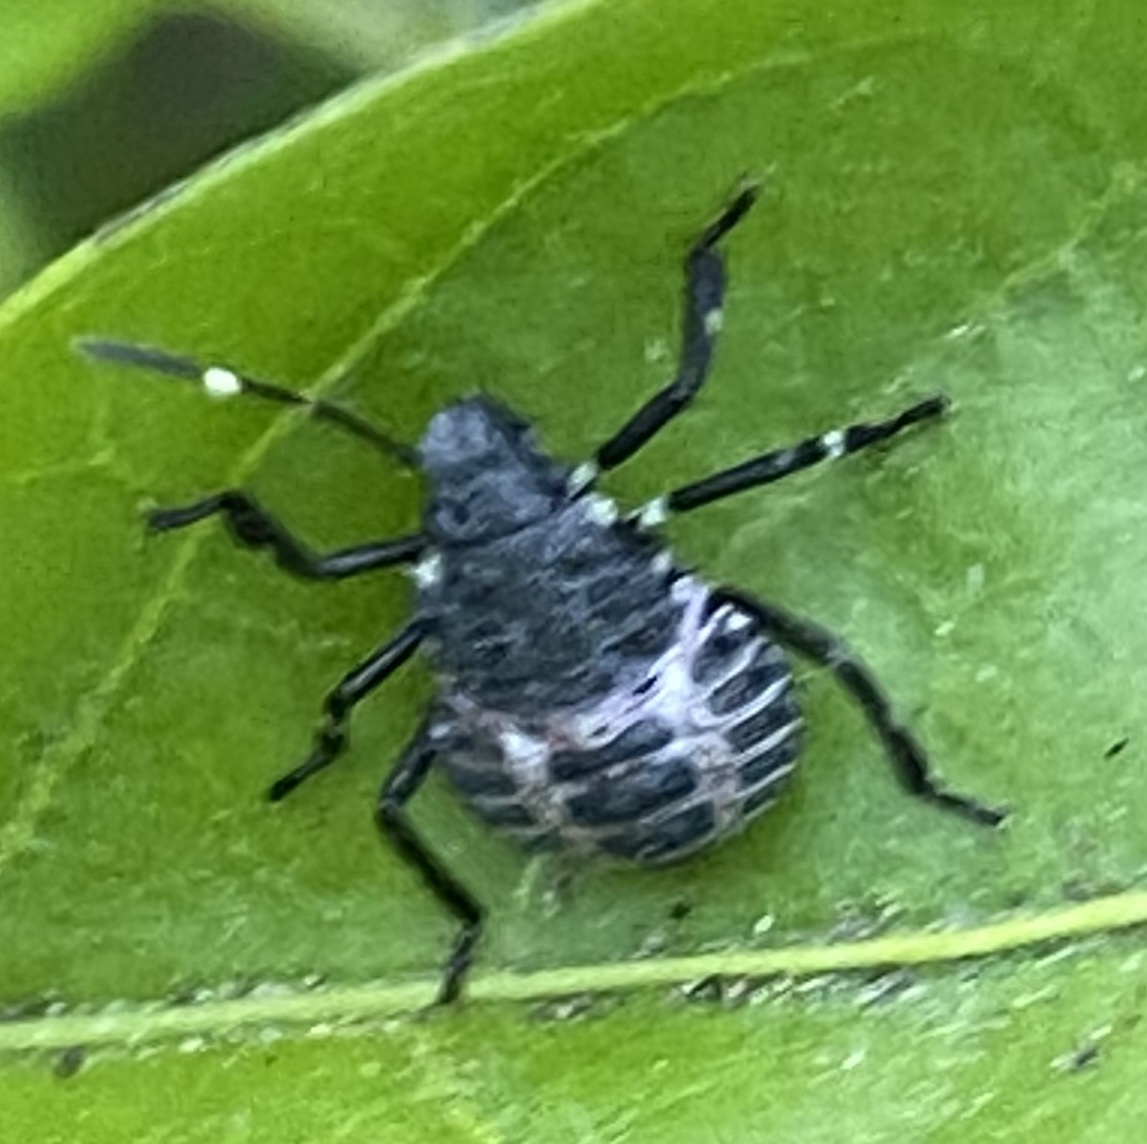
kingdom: Animalia
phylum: Arthropoda
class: Insecta
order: Hemiptera
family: Pentatomidae
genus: Halyomorpha
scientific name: Halyomorpha halys
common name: Brown marmorated stink bug
